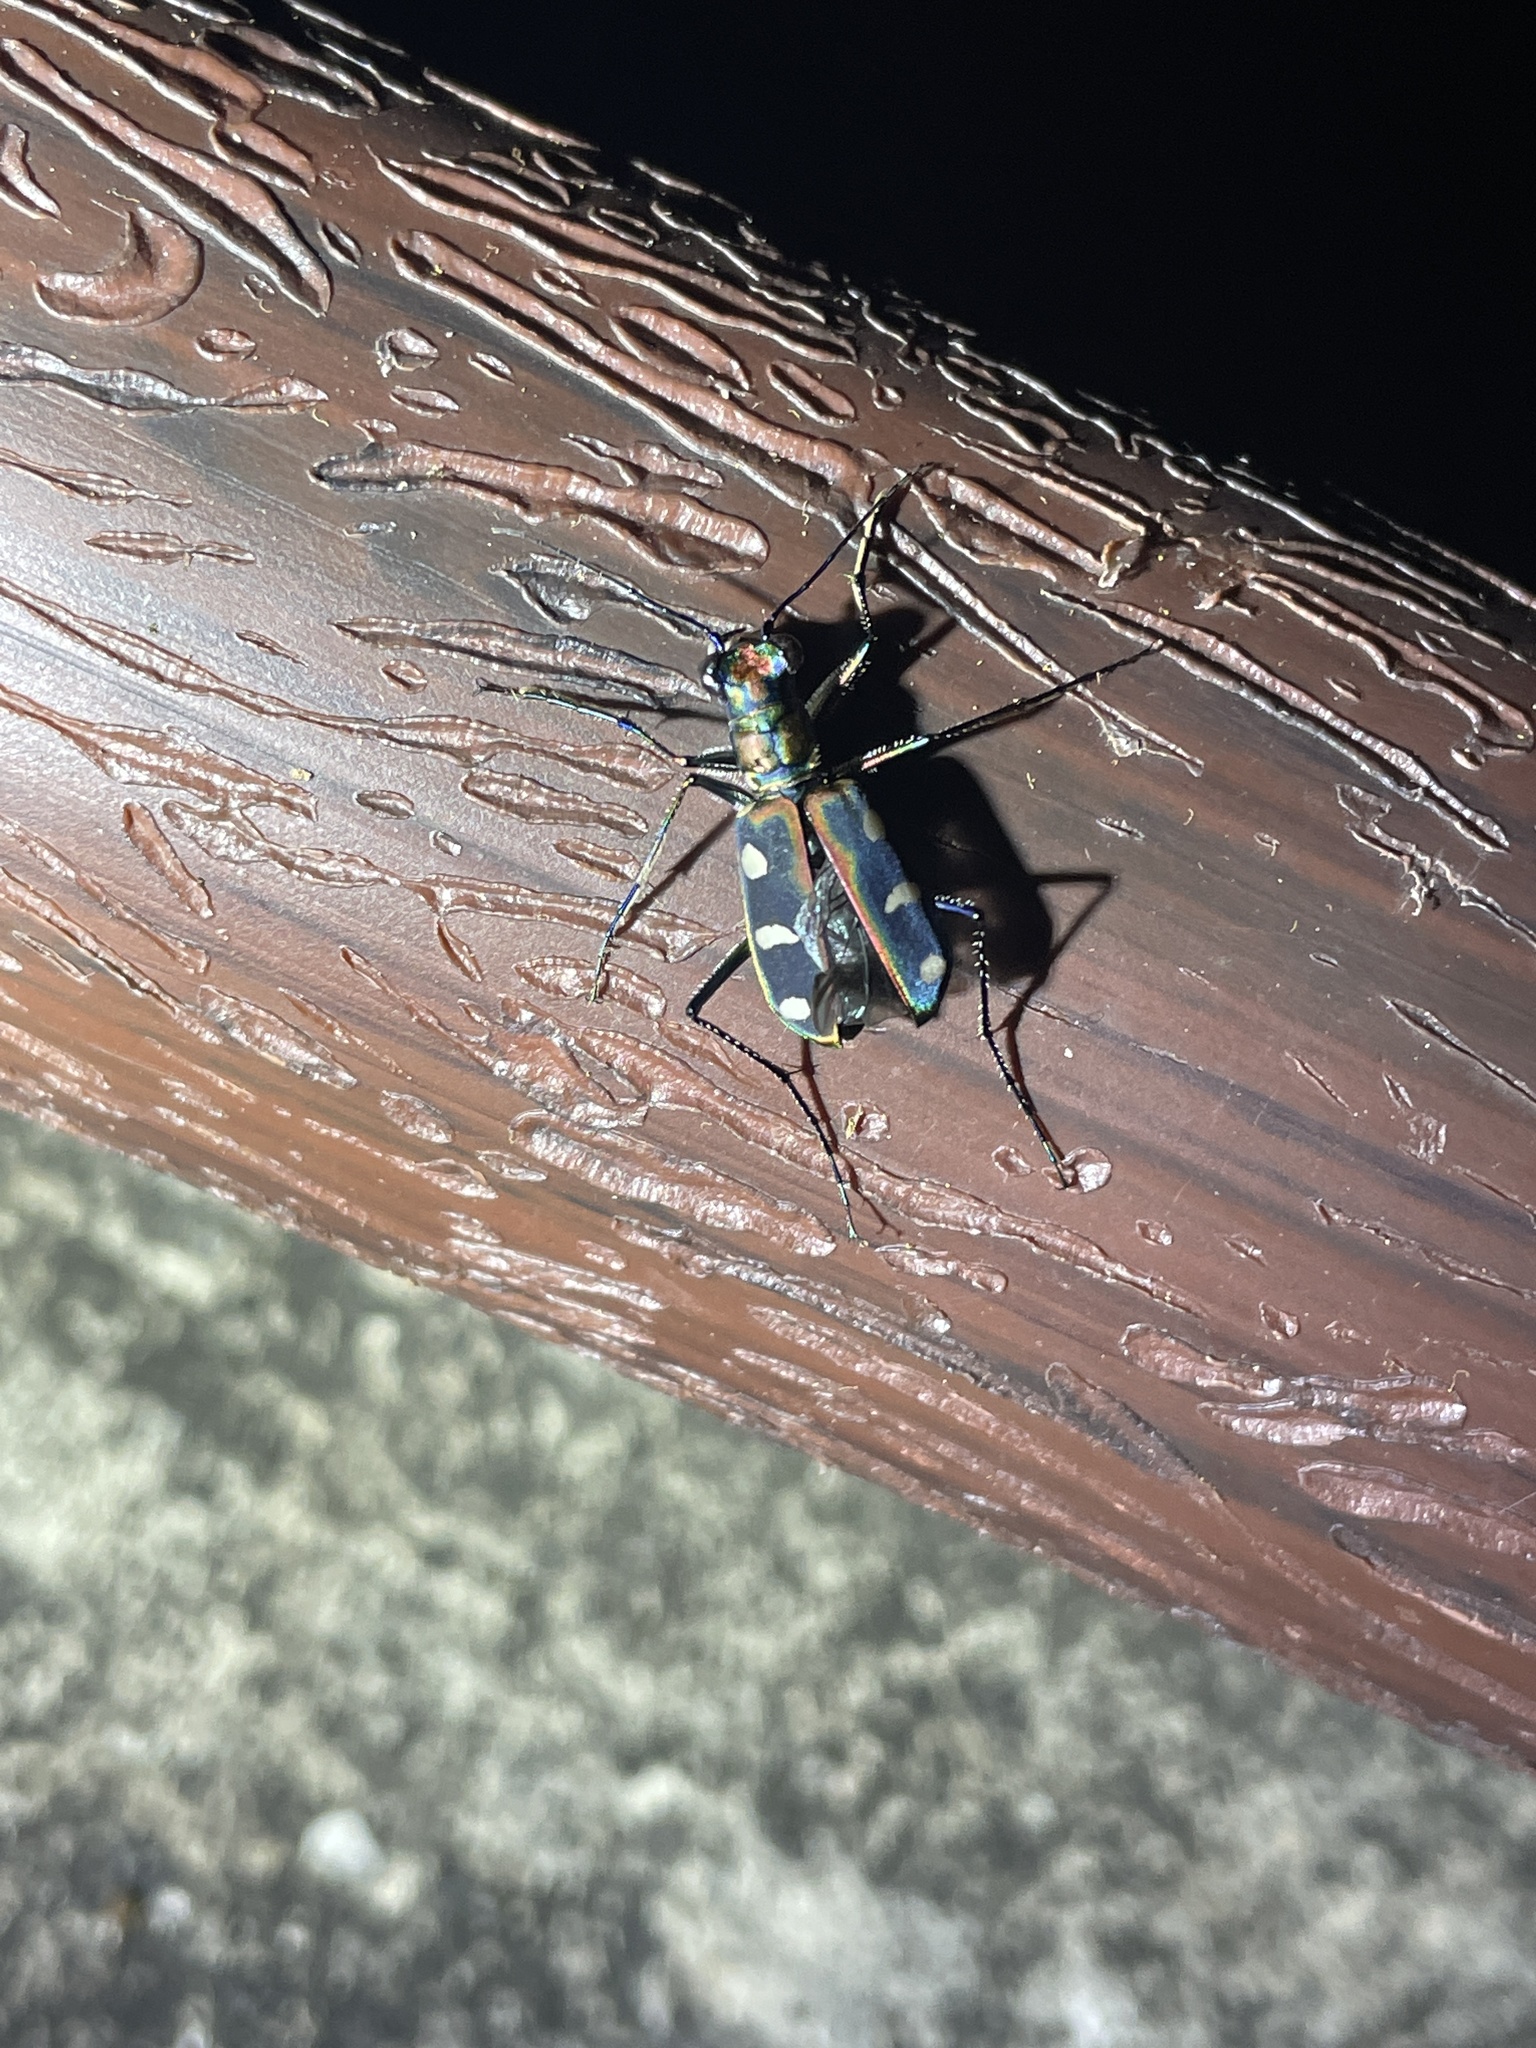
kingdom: Animalia
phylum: Arthropoda
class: Insecta
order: Coleoptera
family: Carabidae
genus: Cicindela
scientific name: Cicindela juxtata
